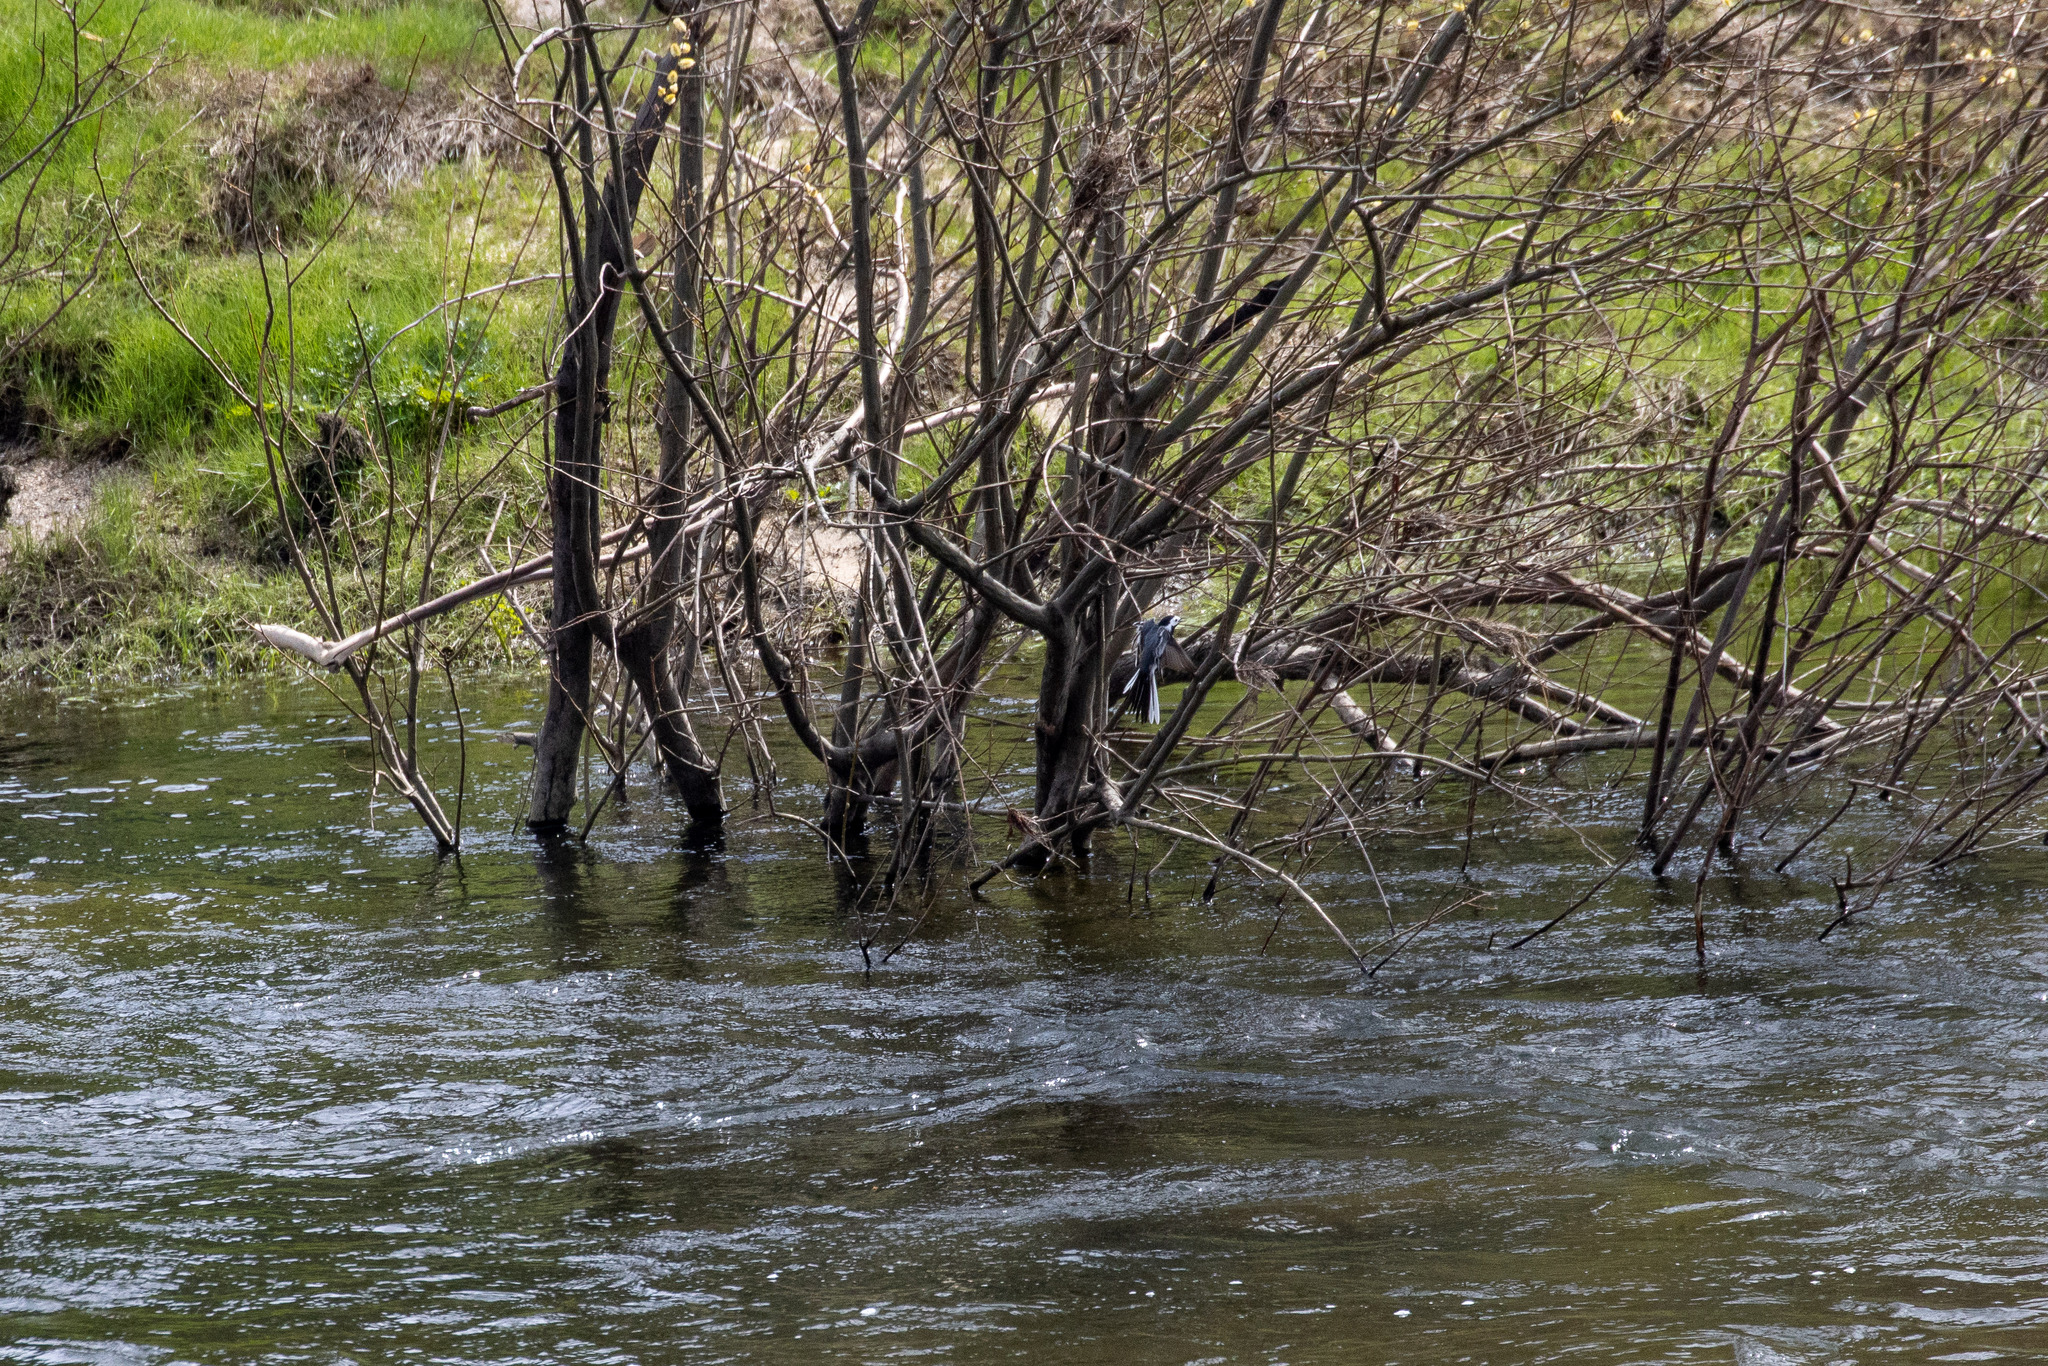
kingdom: Animalia
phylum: Chordata
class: Aves
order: Passeriformes
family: Motacillidae
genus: Motacilla
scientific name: Motacilla alba
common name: White wagtail
